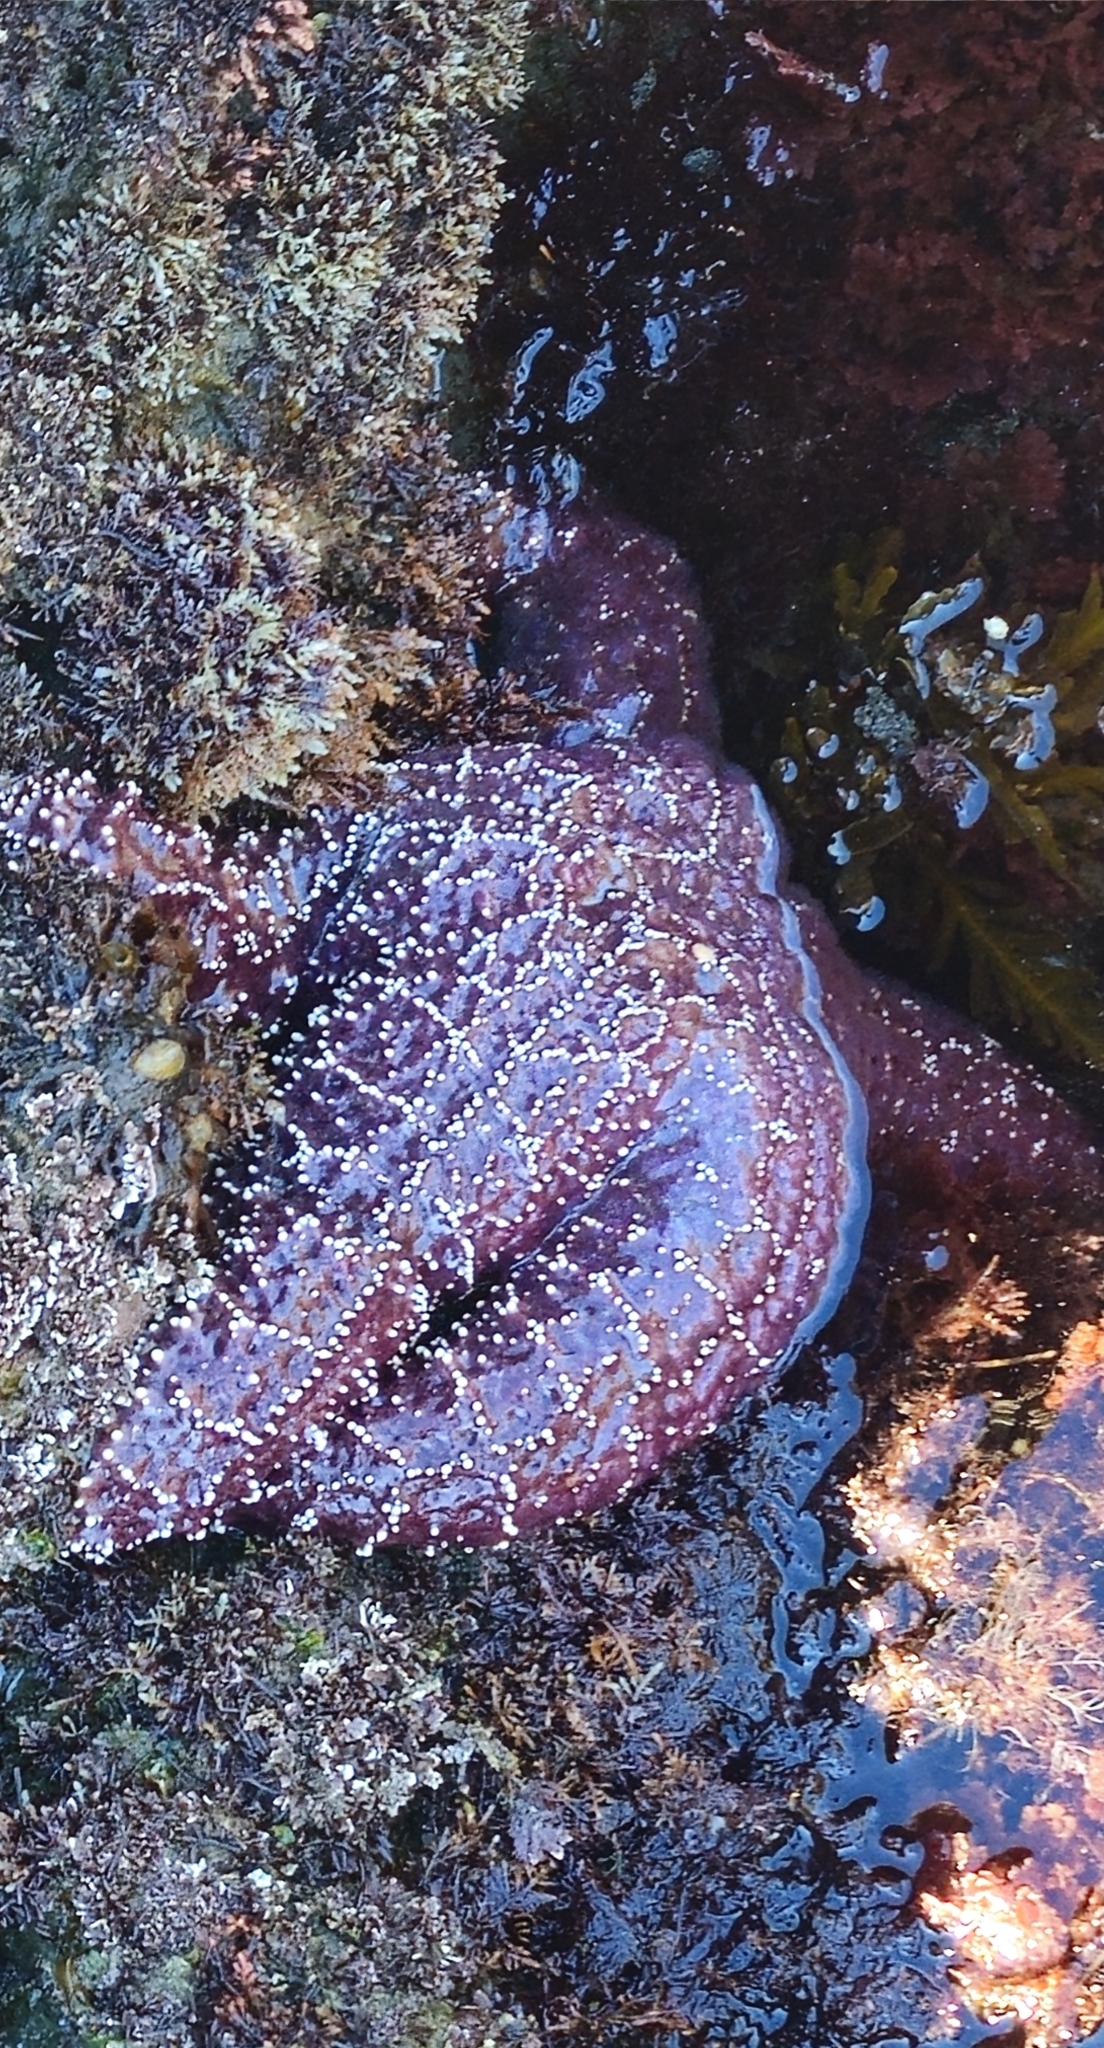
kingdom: Animalia
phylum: Echinodermata
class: Asteroidea
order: Forcipulatida
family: Asteriidae
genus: Pisaster
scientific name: Pisaster ochraceus
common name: Ochre stars
